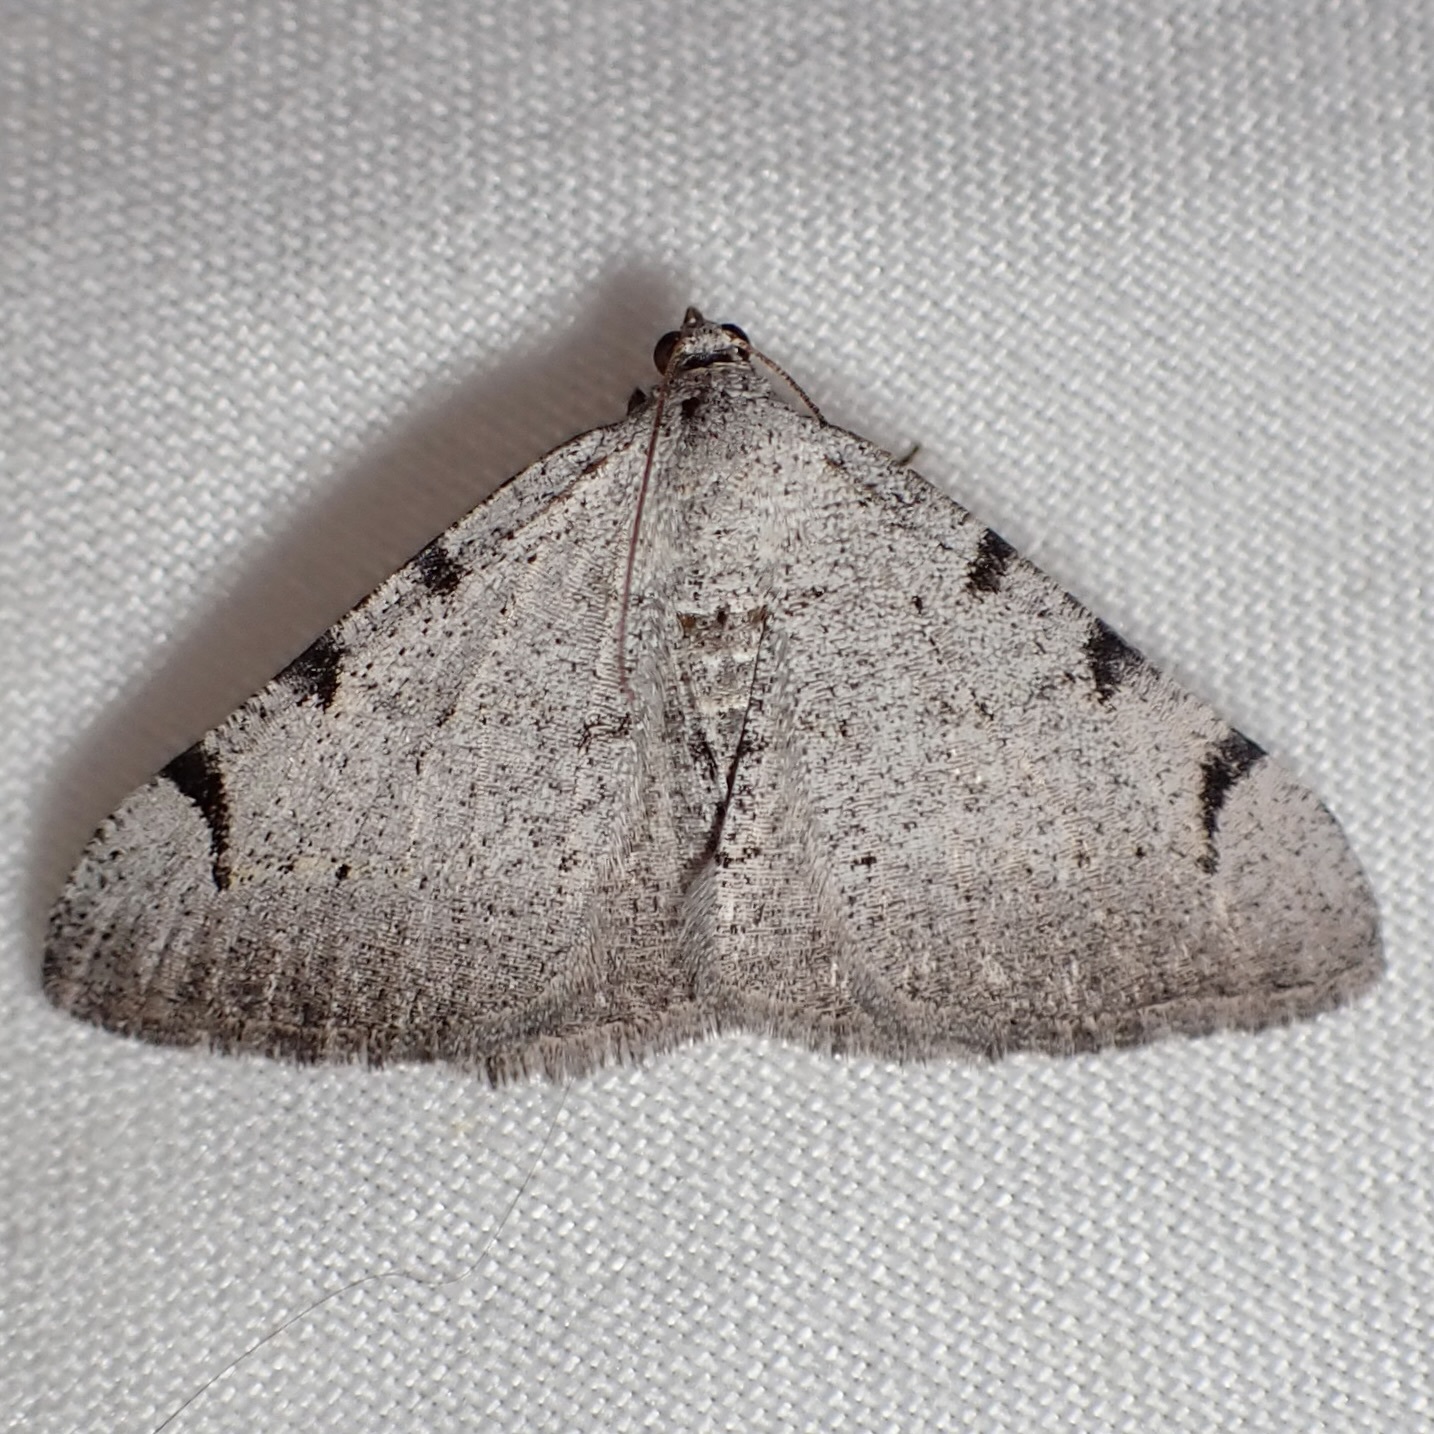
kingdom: Animalia
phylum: Arthropoda
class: Insecta
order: Lepidoptera
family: Geometridae
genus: Digrammia
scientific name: Digrammia triviata
